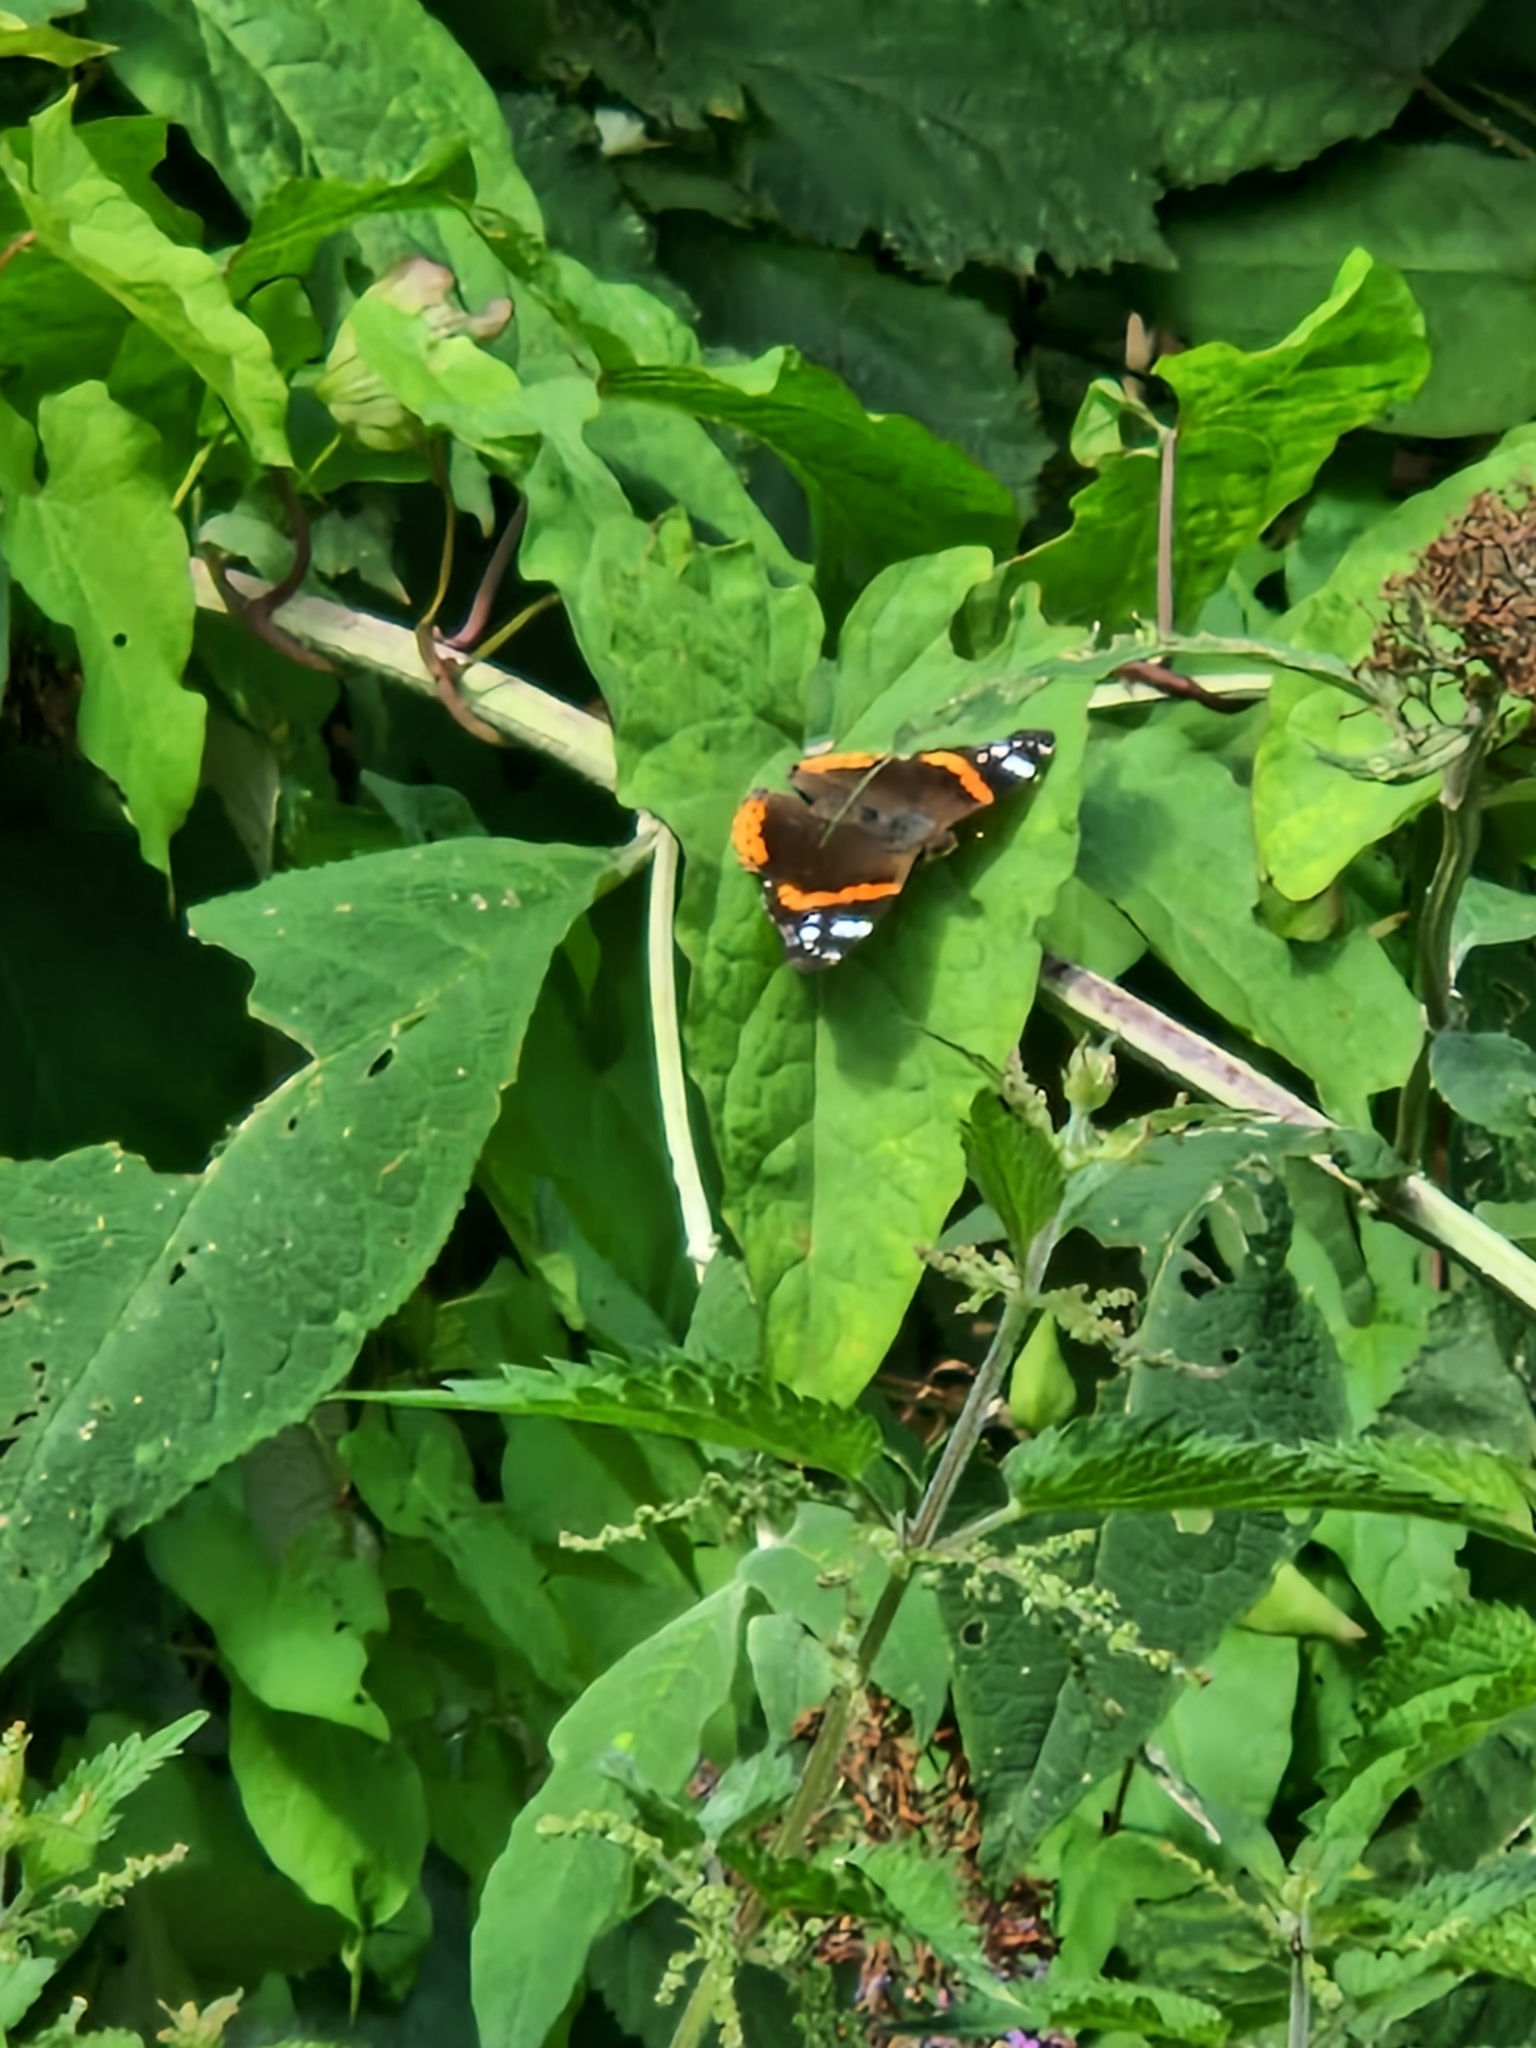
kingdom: Animalia
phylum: Arthropoda
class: Insecta
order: Lepidoptera
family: Nymphalidae
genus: Vanessa
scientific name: Vanessa atalanta
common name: Red admiral
